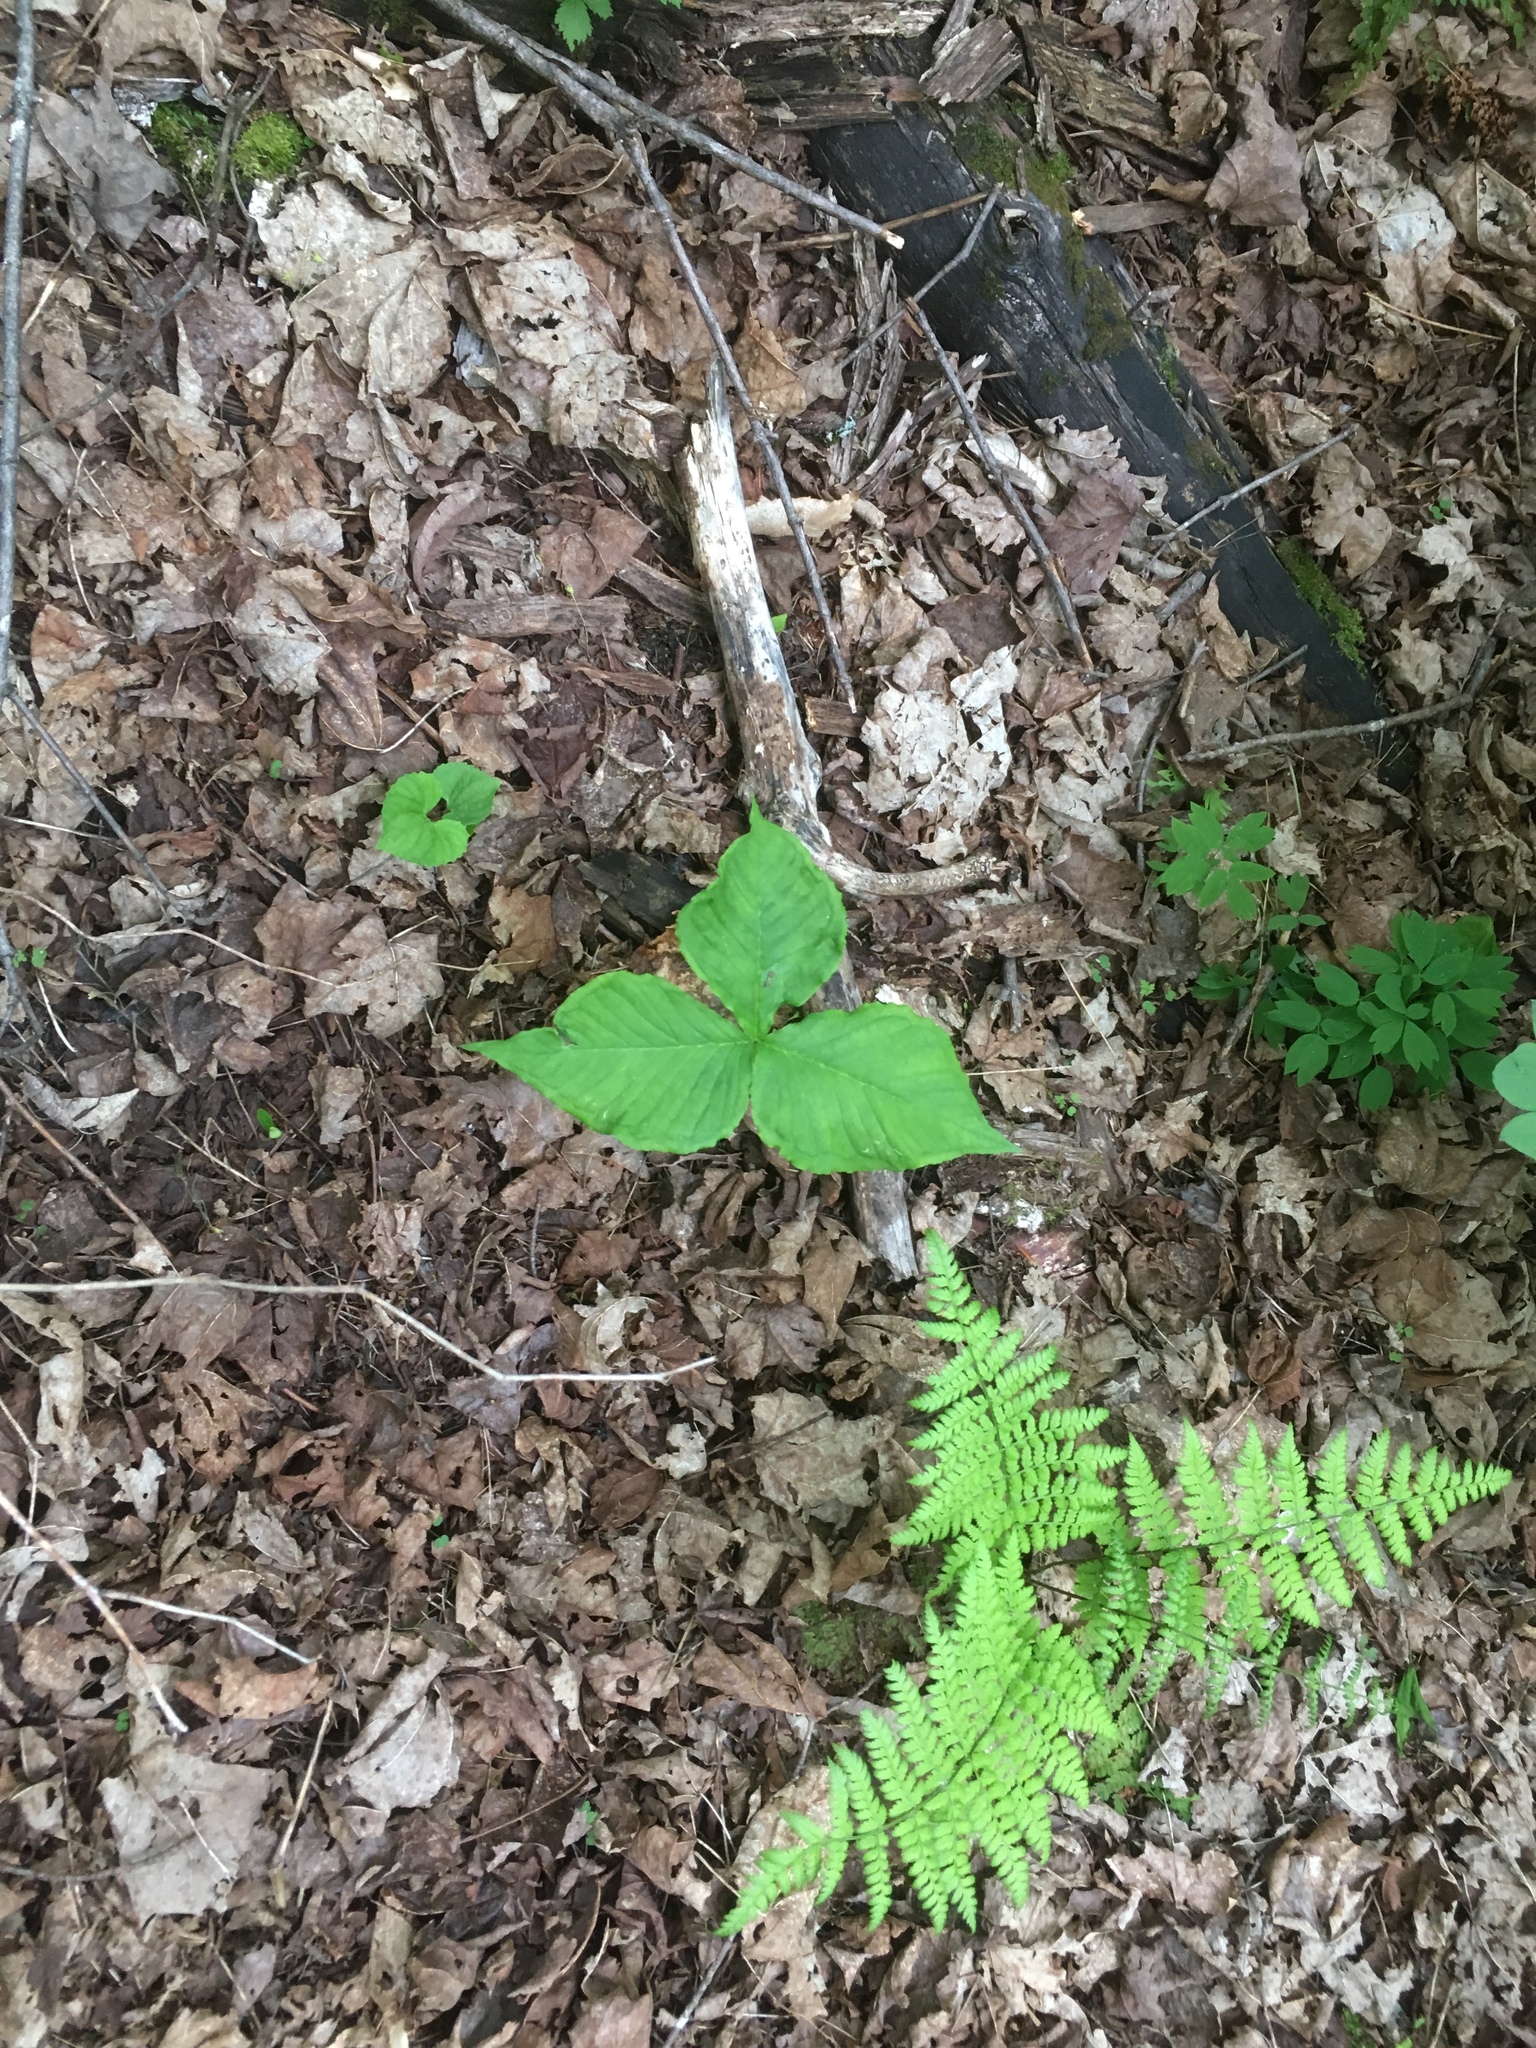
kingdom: Plantae
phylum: Tracheophyta
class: Liliopsida
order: Alismatales
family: Araceae
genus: Arisaema
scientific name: Arisaema triphyllum
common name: Jack-in-the-pulpit
